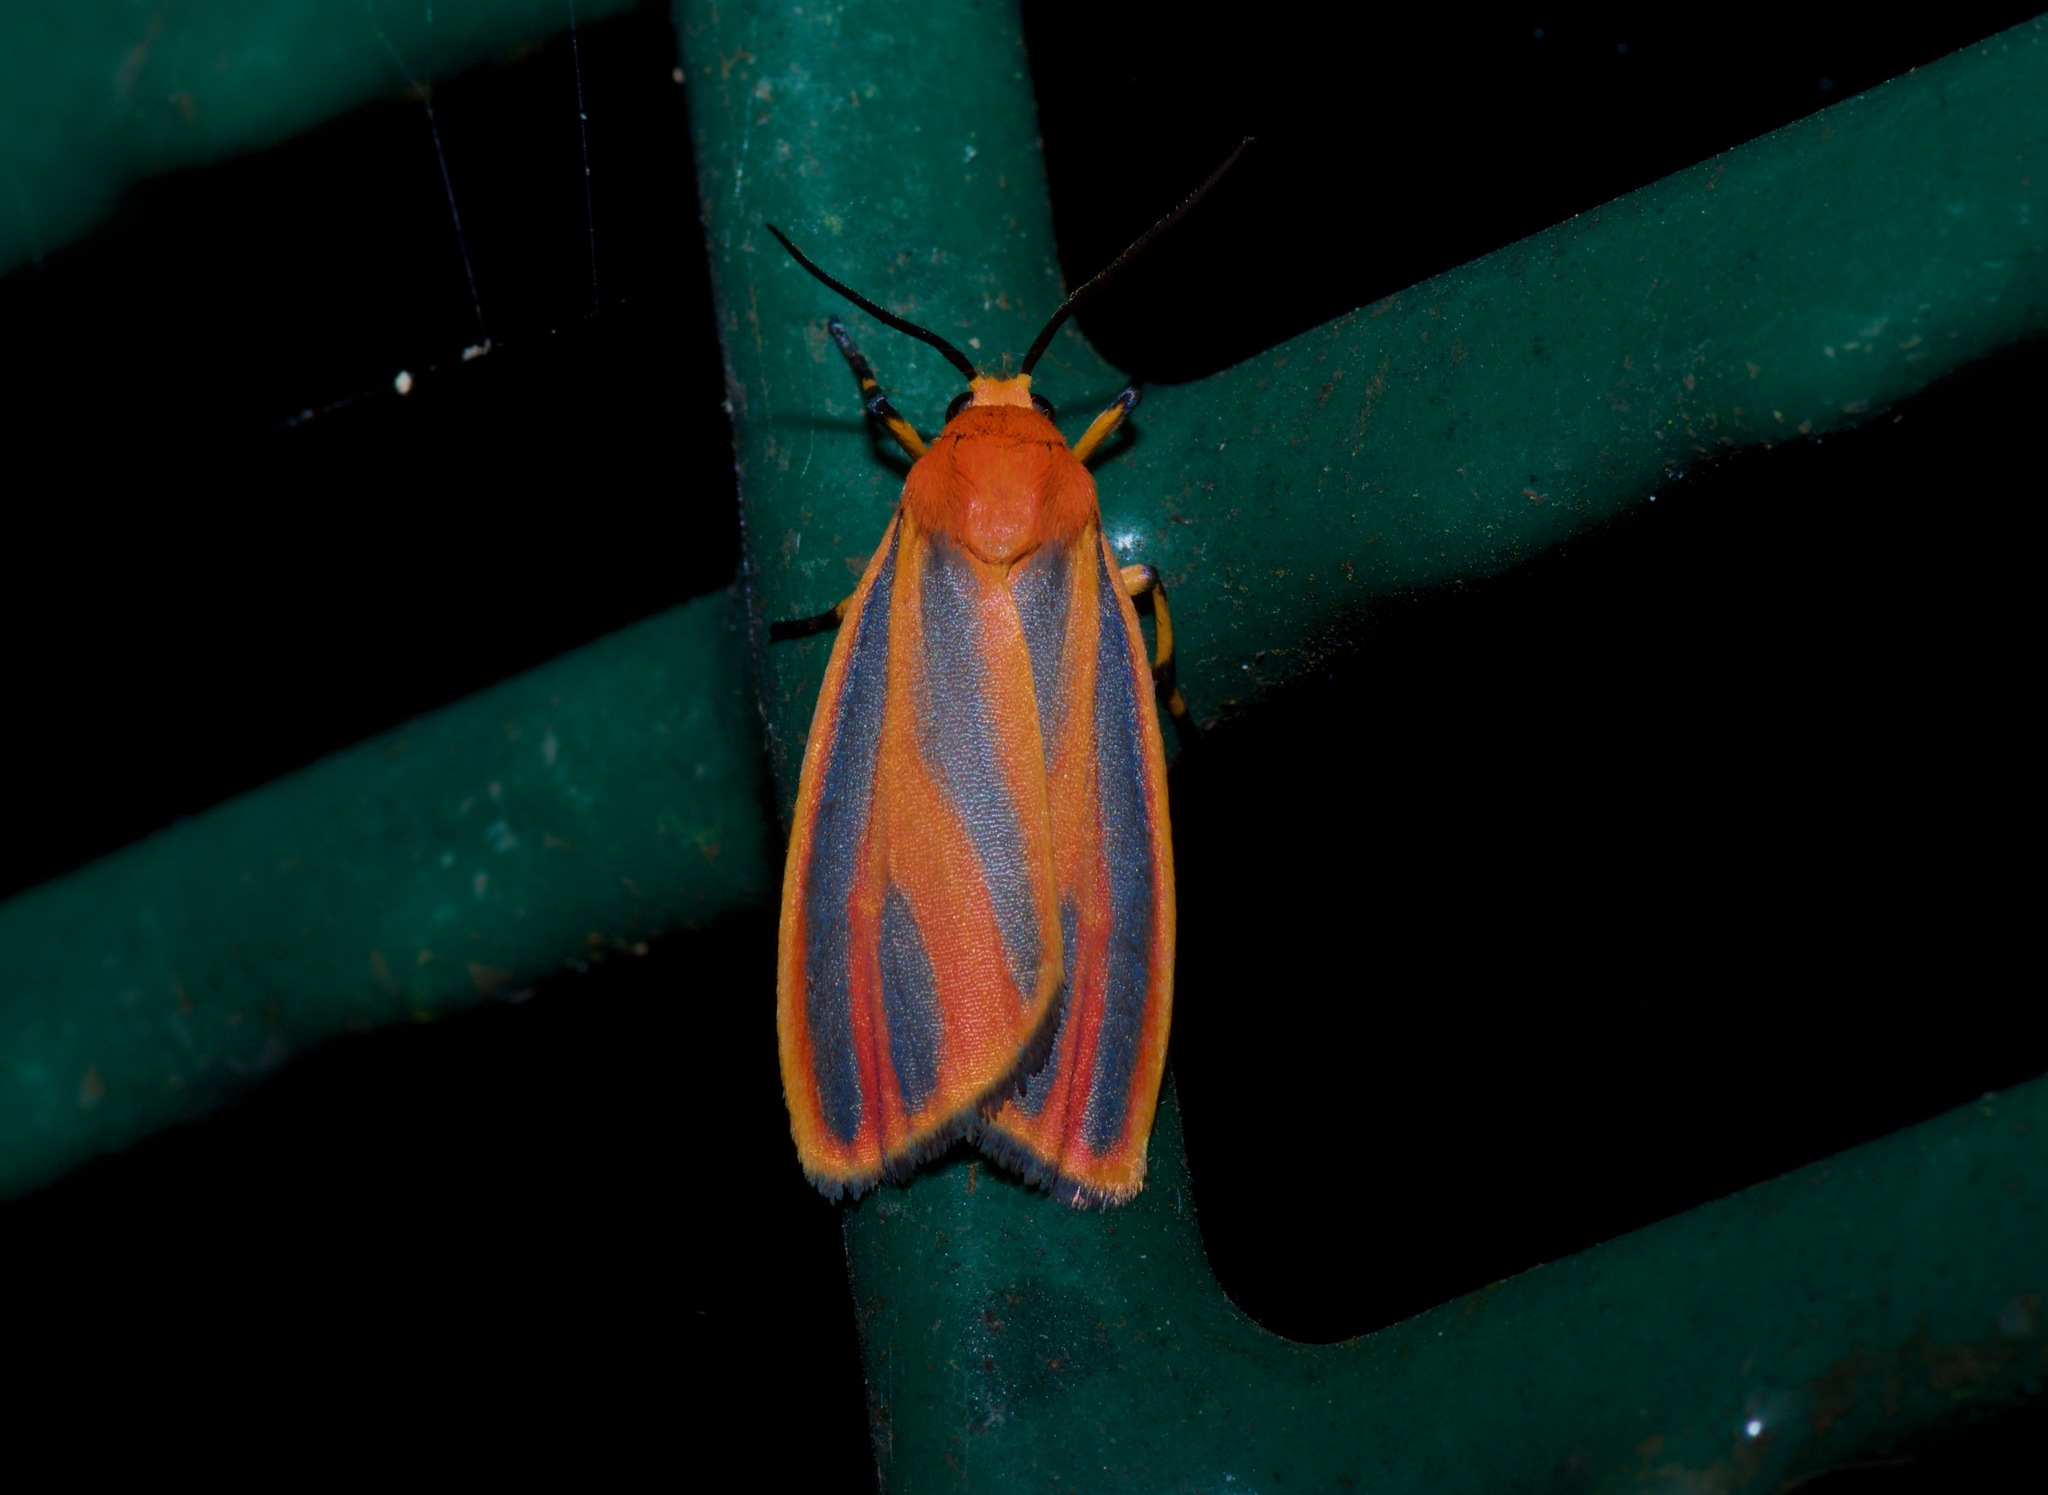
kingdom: Animalia
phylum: Arthropoda
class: Insecta
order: Lepidoptera
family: Erebidae
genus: Hypoprepia
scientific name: Hypoprepia miniata
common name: Scarlet-winged lichen moth
